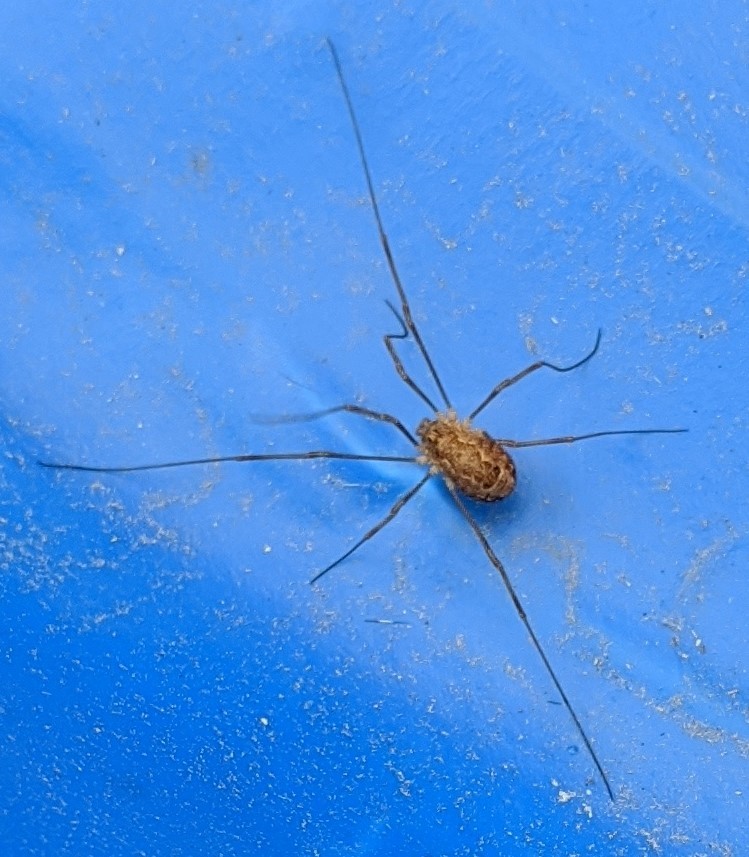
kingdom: Animalia
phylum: Arthropoda
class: Arachnida
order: Opiliones
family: Phalangiidae
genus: Rilaena
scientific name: Rilaena triangularis
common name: Spring harvestman
